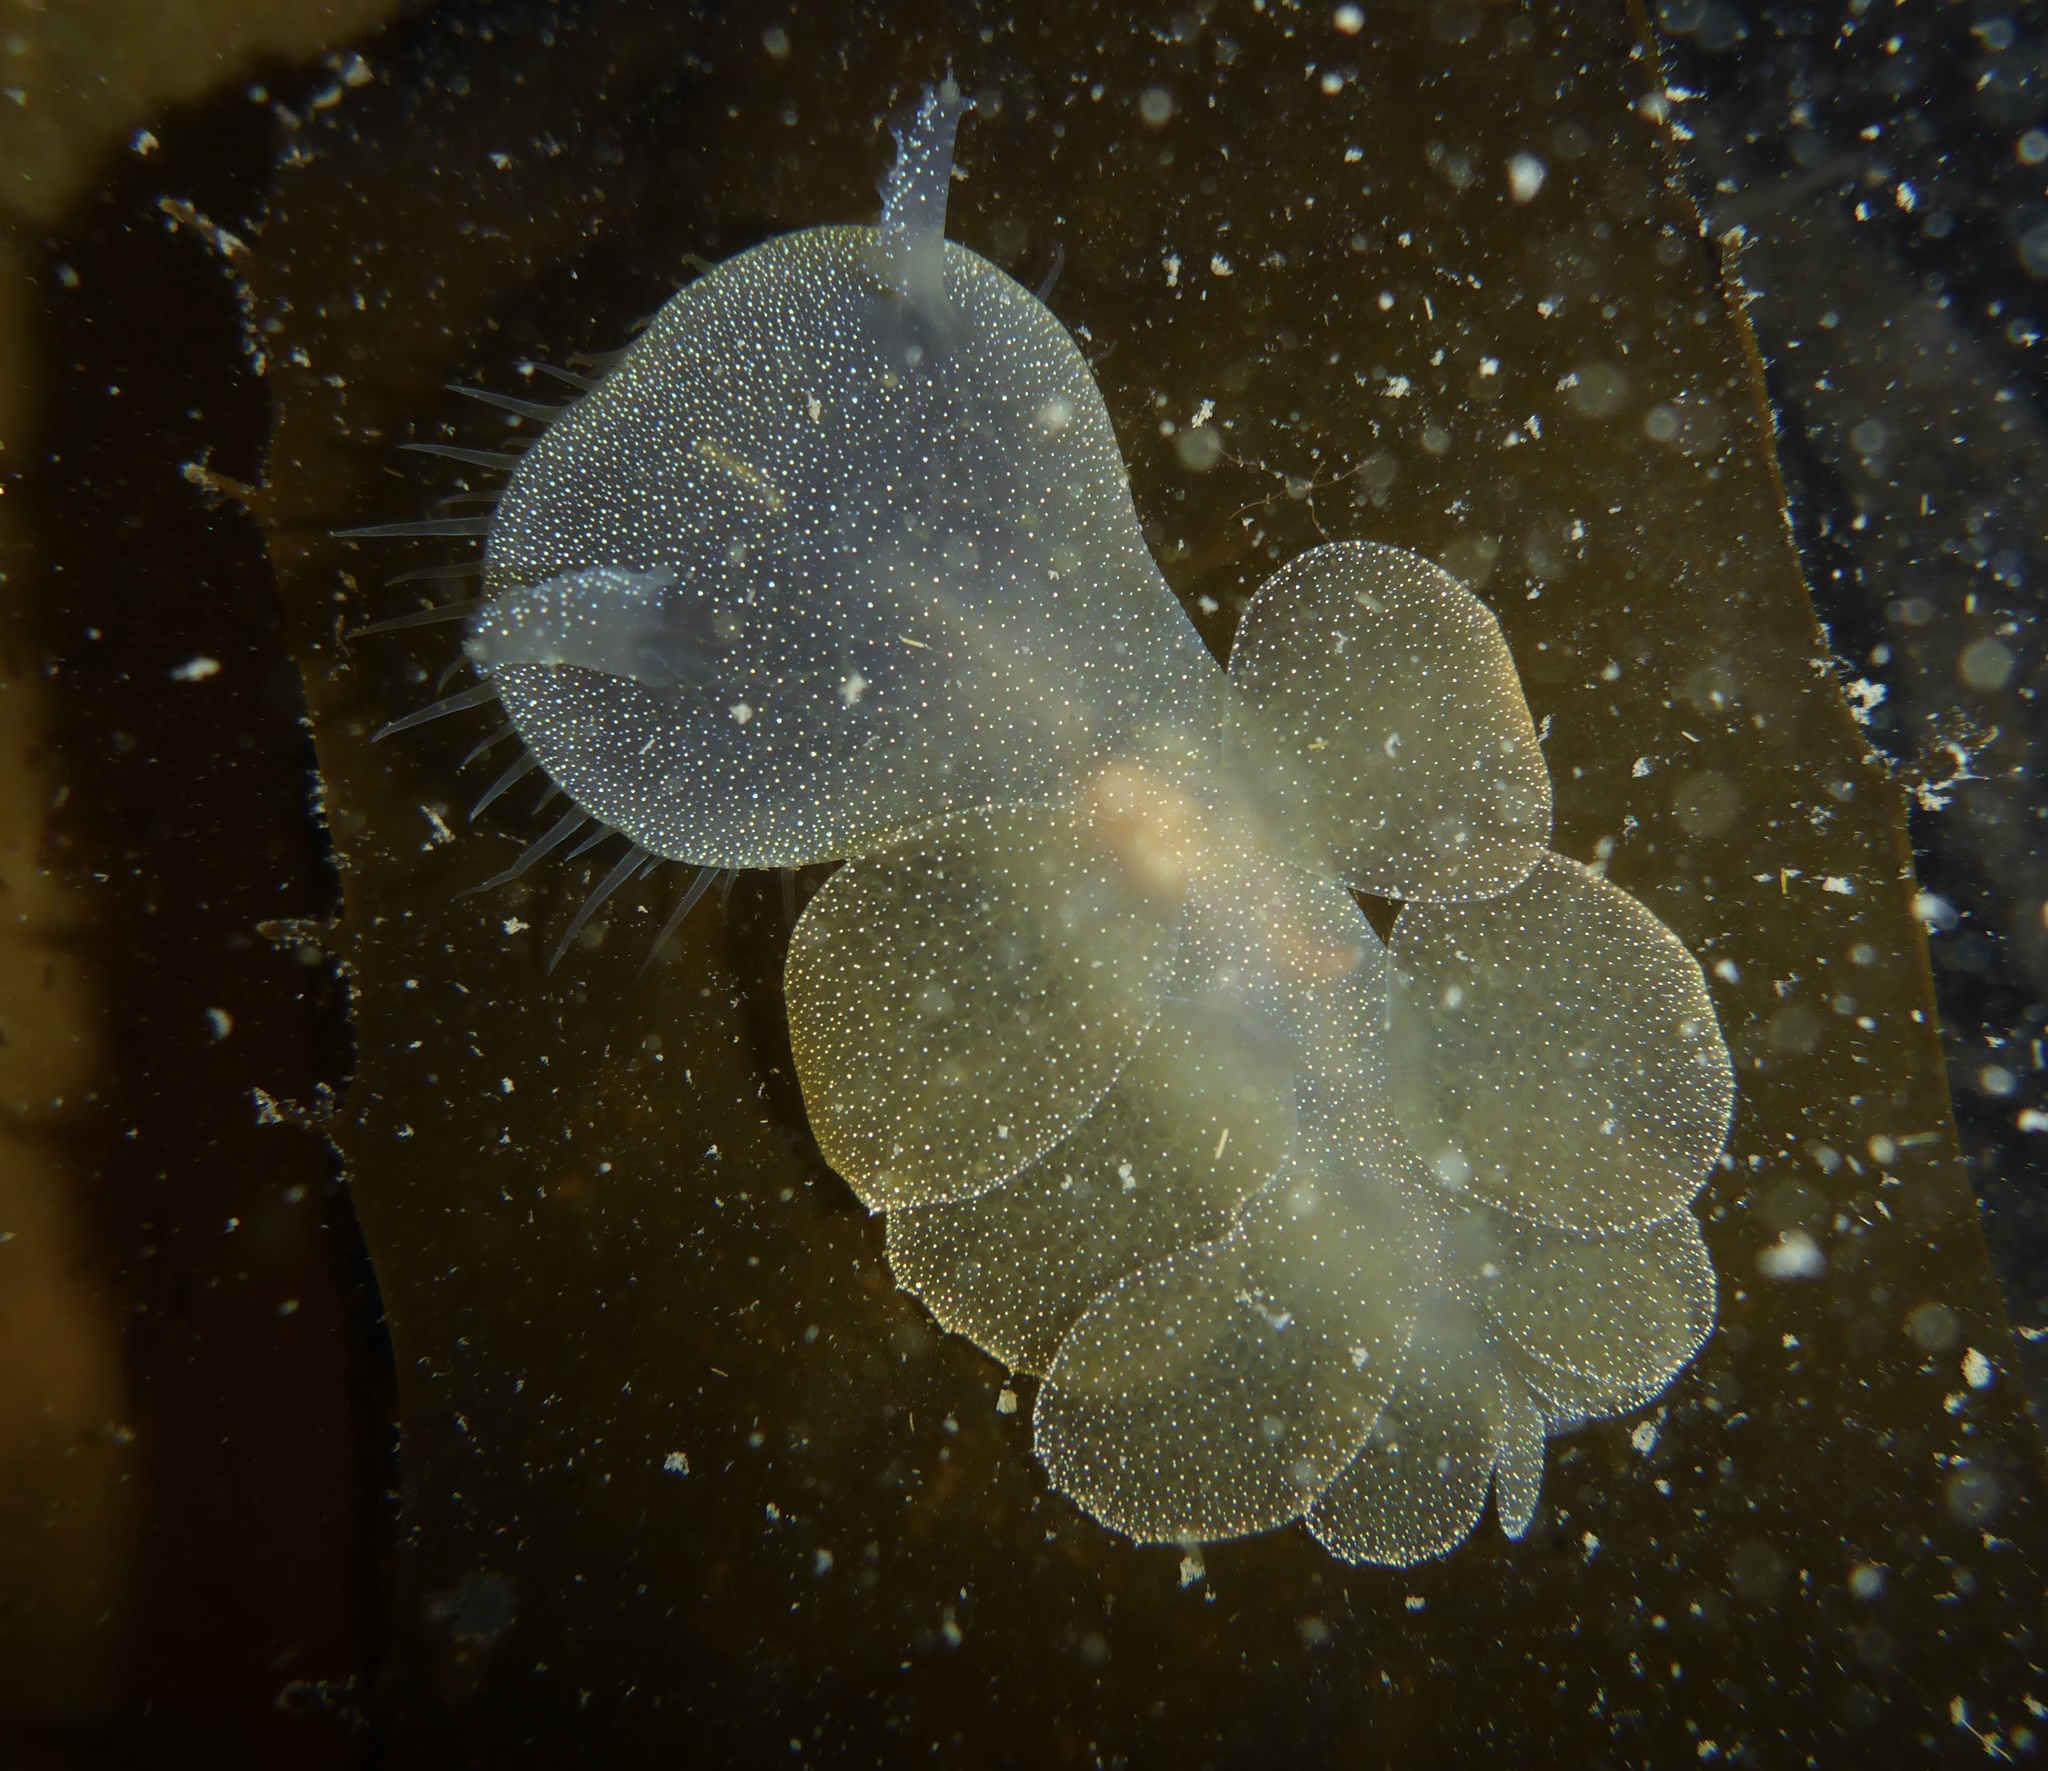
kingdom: Animalia
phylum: Mollusca
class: Gastropoda
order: Nudibranchia
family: Tethydidae
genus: Melibe
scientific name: Melibe leonina
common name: Lion nudibranch
